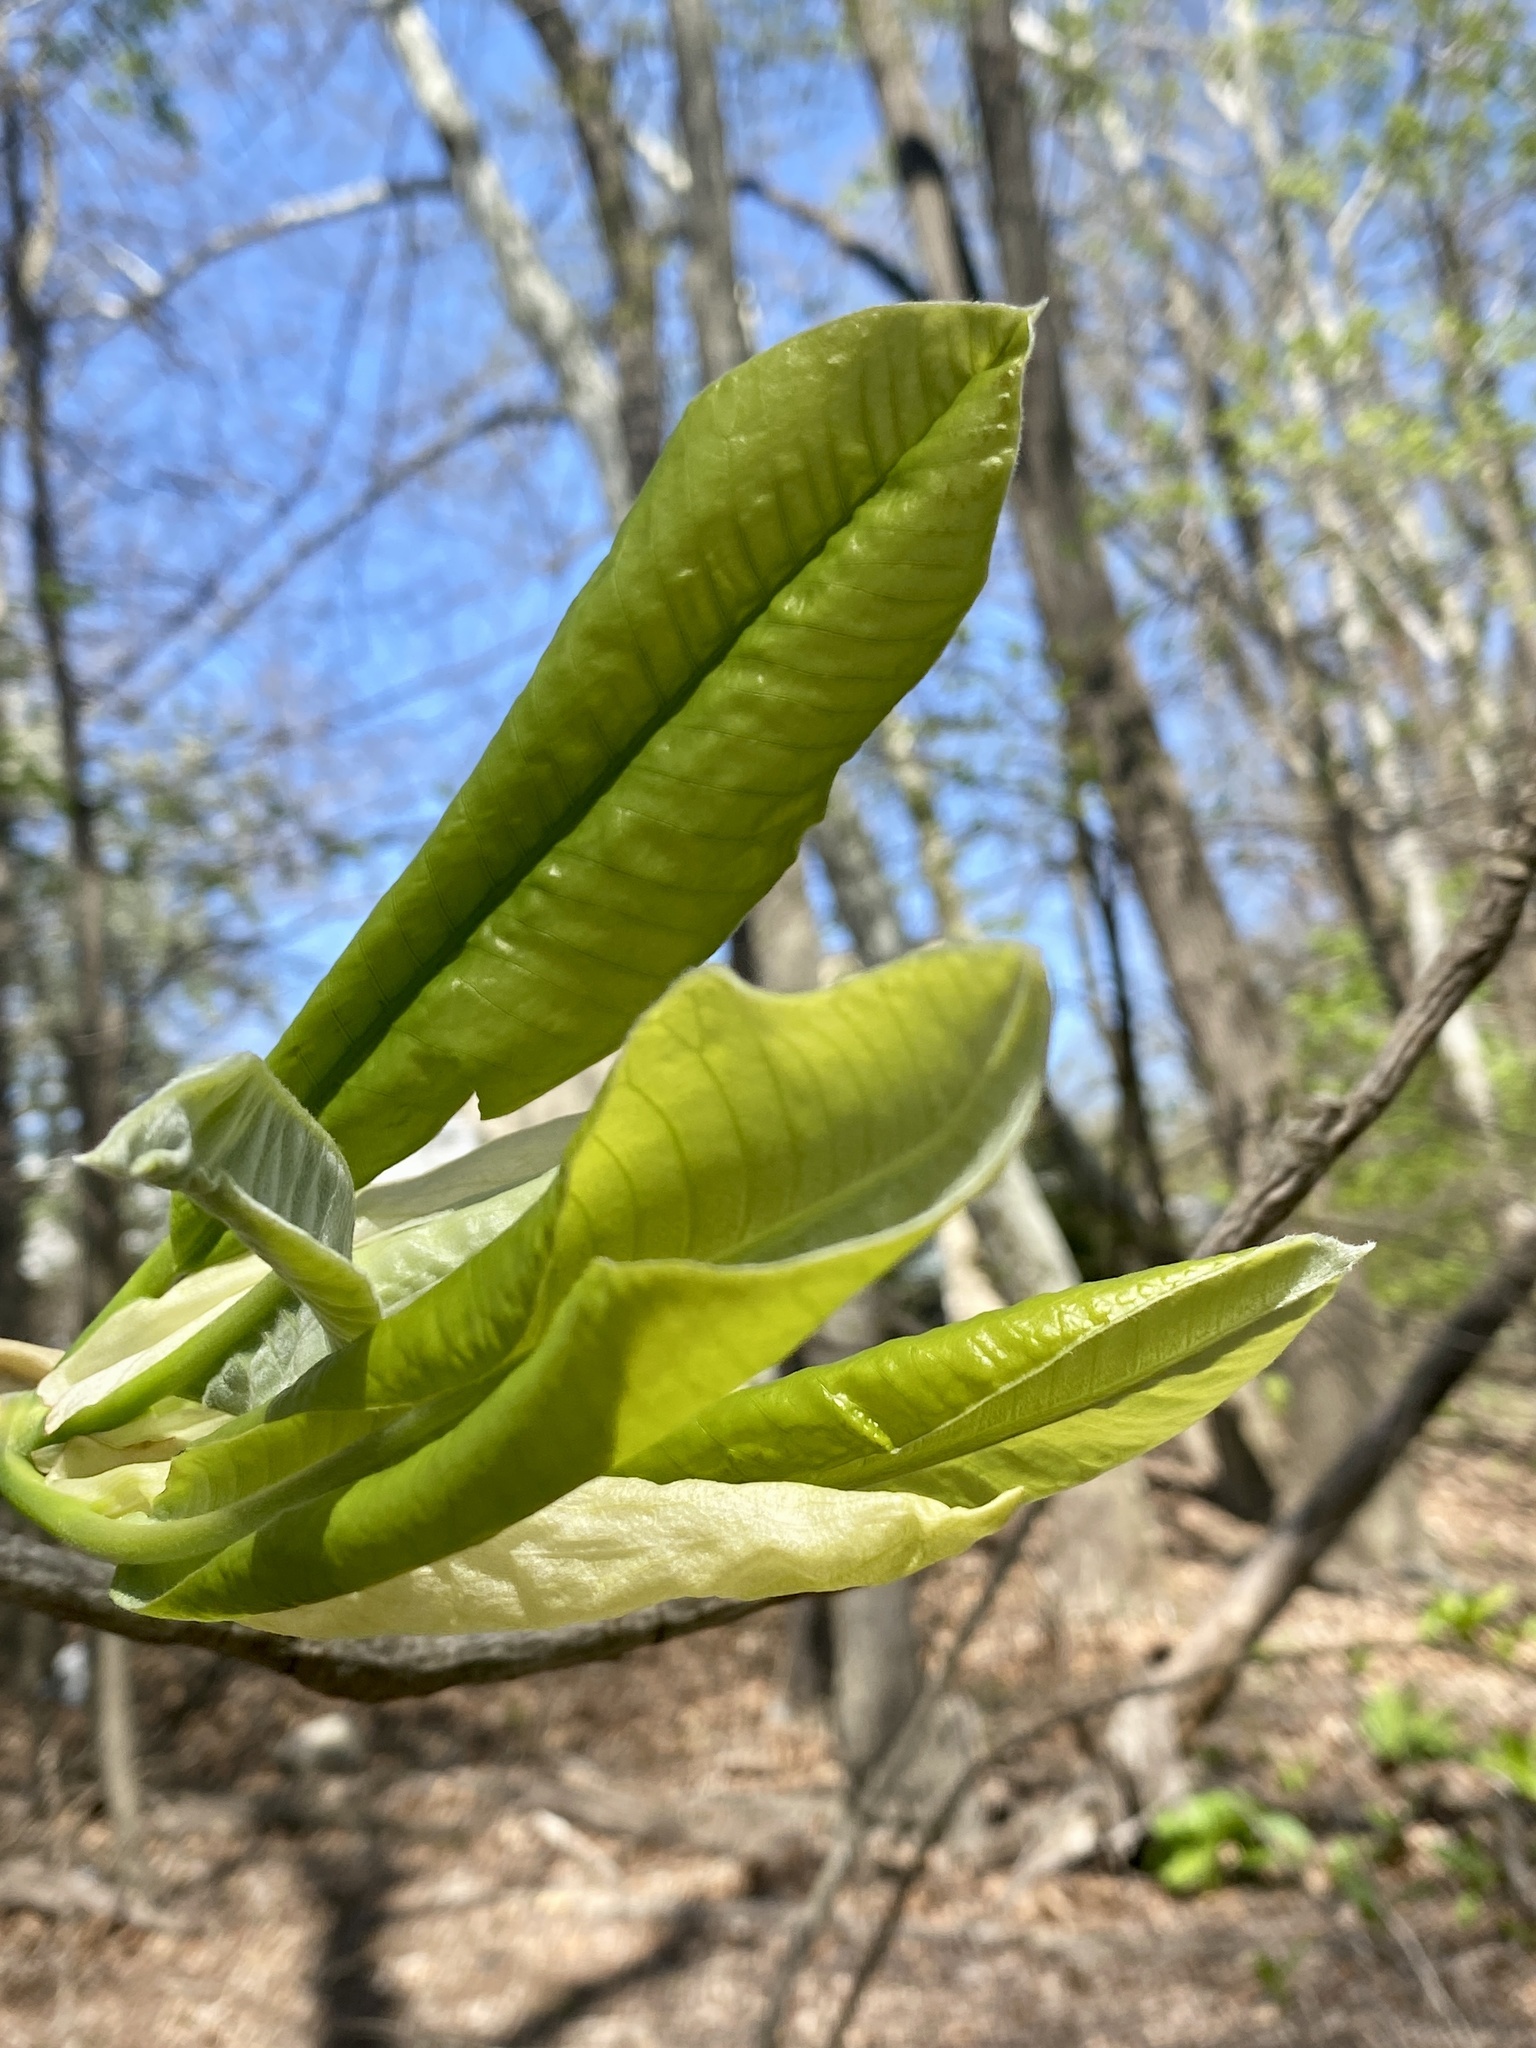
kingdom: Plantae
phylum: Tracheophyta
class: Magnoliopsida
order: Magnoliales
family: Magnoliaceae
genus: Magnolia
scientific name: Magnolia tripetala
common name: Umbrella magnolia
